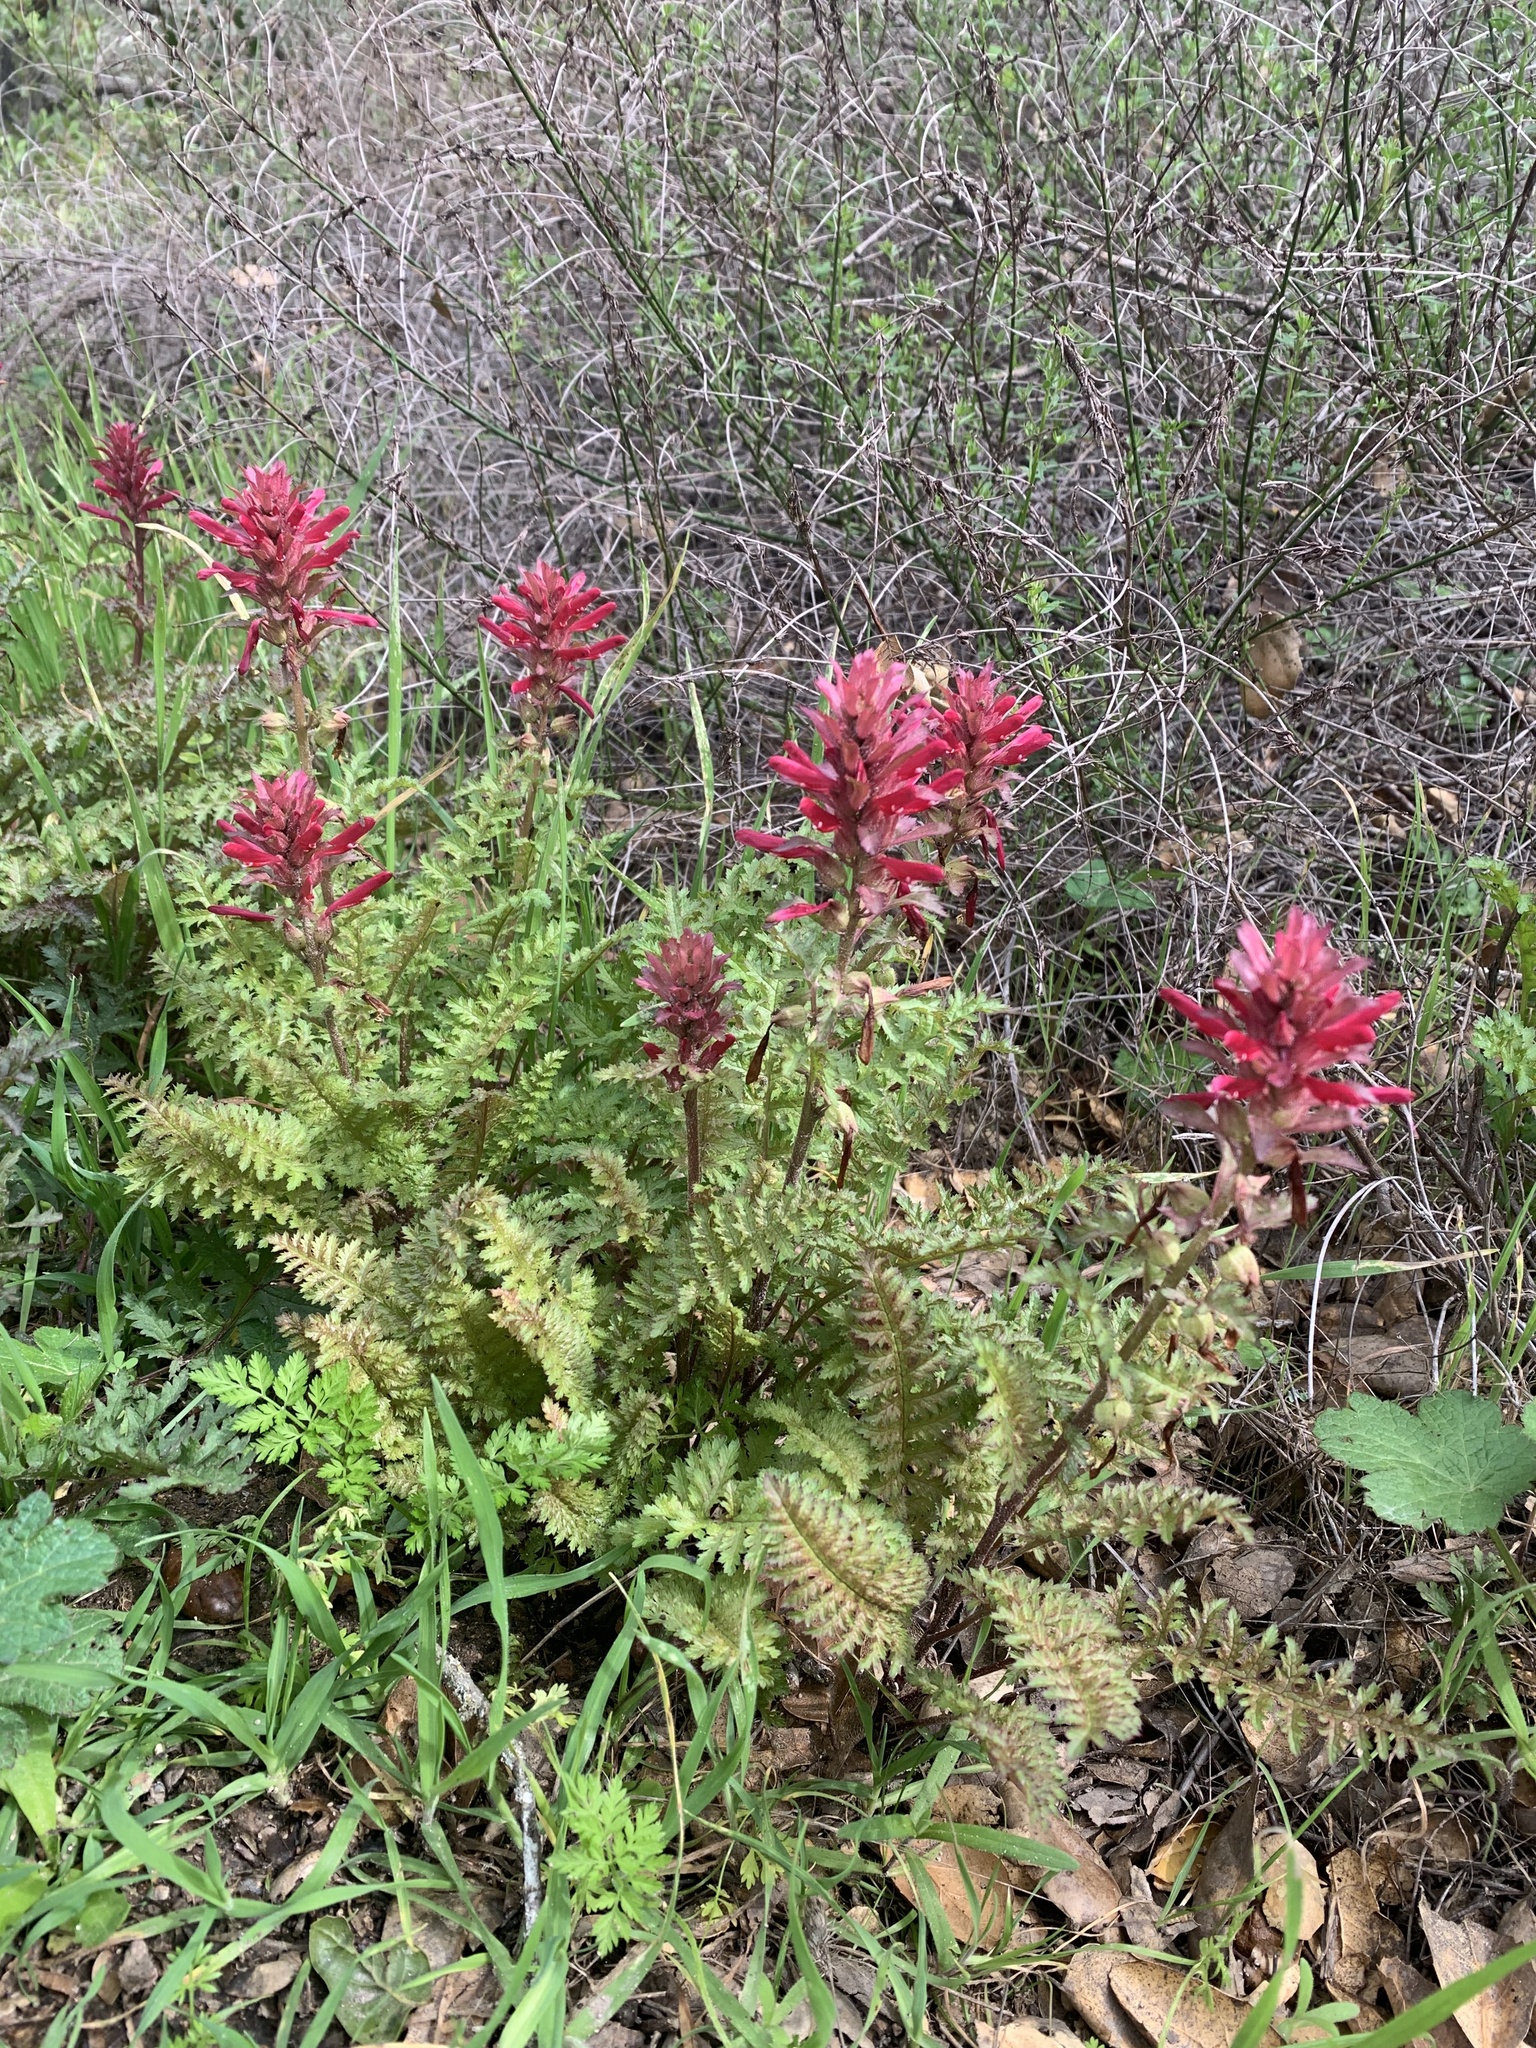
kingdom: Plantae
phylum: Tracheophyta
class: Magnoliopsida
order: Lamiales
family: Orobanchaceae
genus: Pedicularis
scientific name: Pedicularis densiflora
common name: Indian warrior
